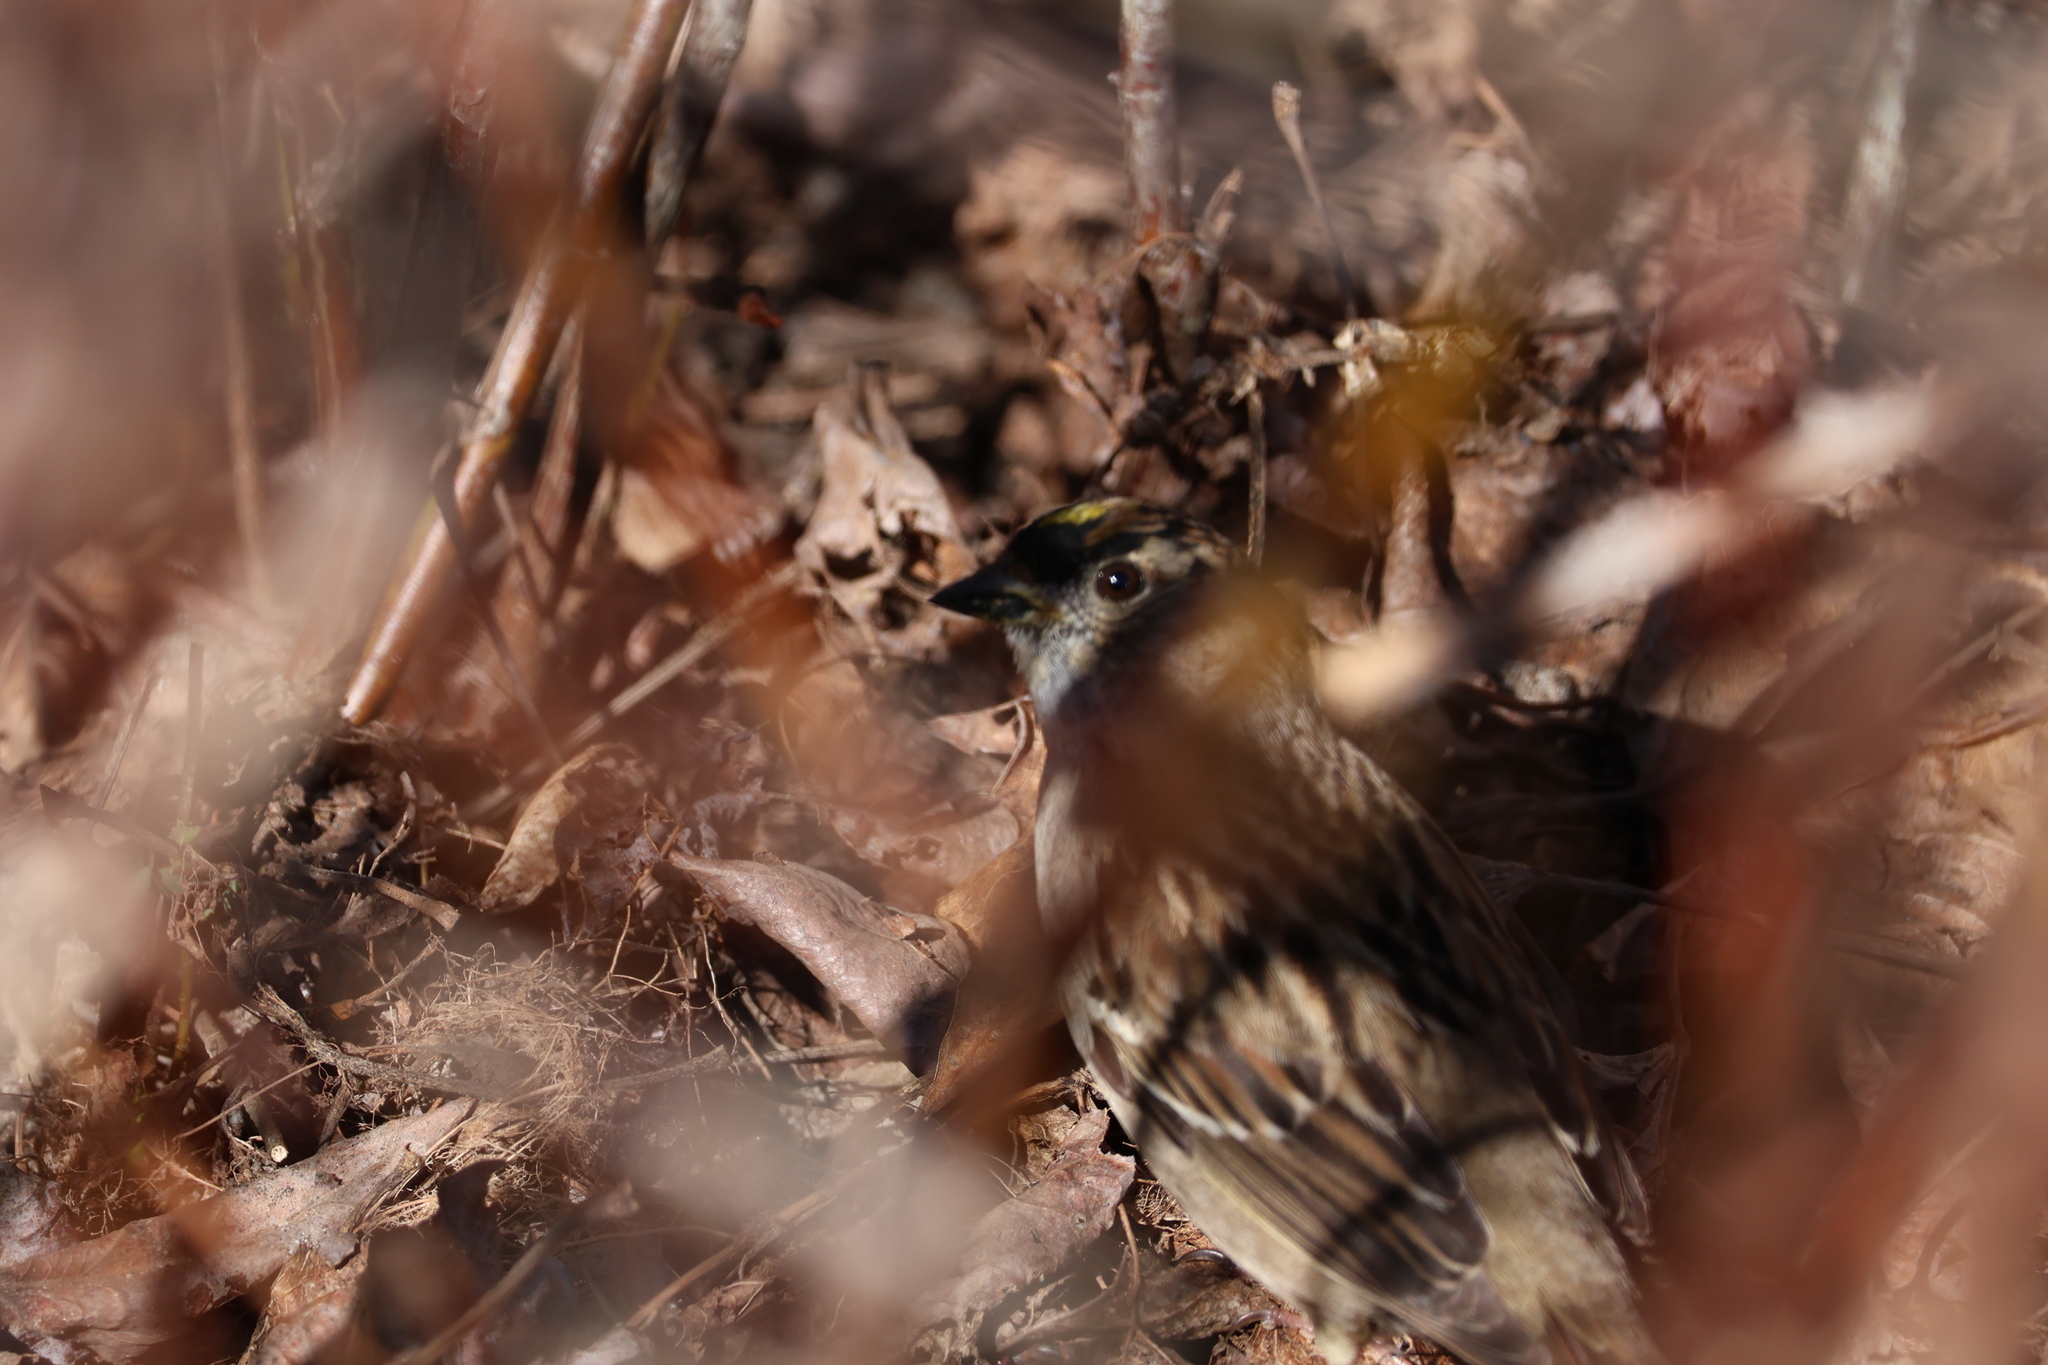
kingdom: Animalia
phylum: Chordata
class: Aves
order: Passeriformes
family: Passerellidae
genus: Zonotrichia
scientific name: Zonotrichia atricapilla
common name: Golden-crowned sparrow
